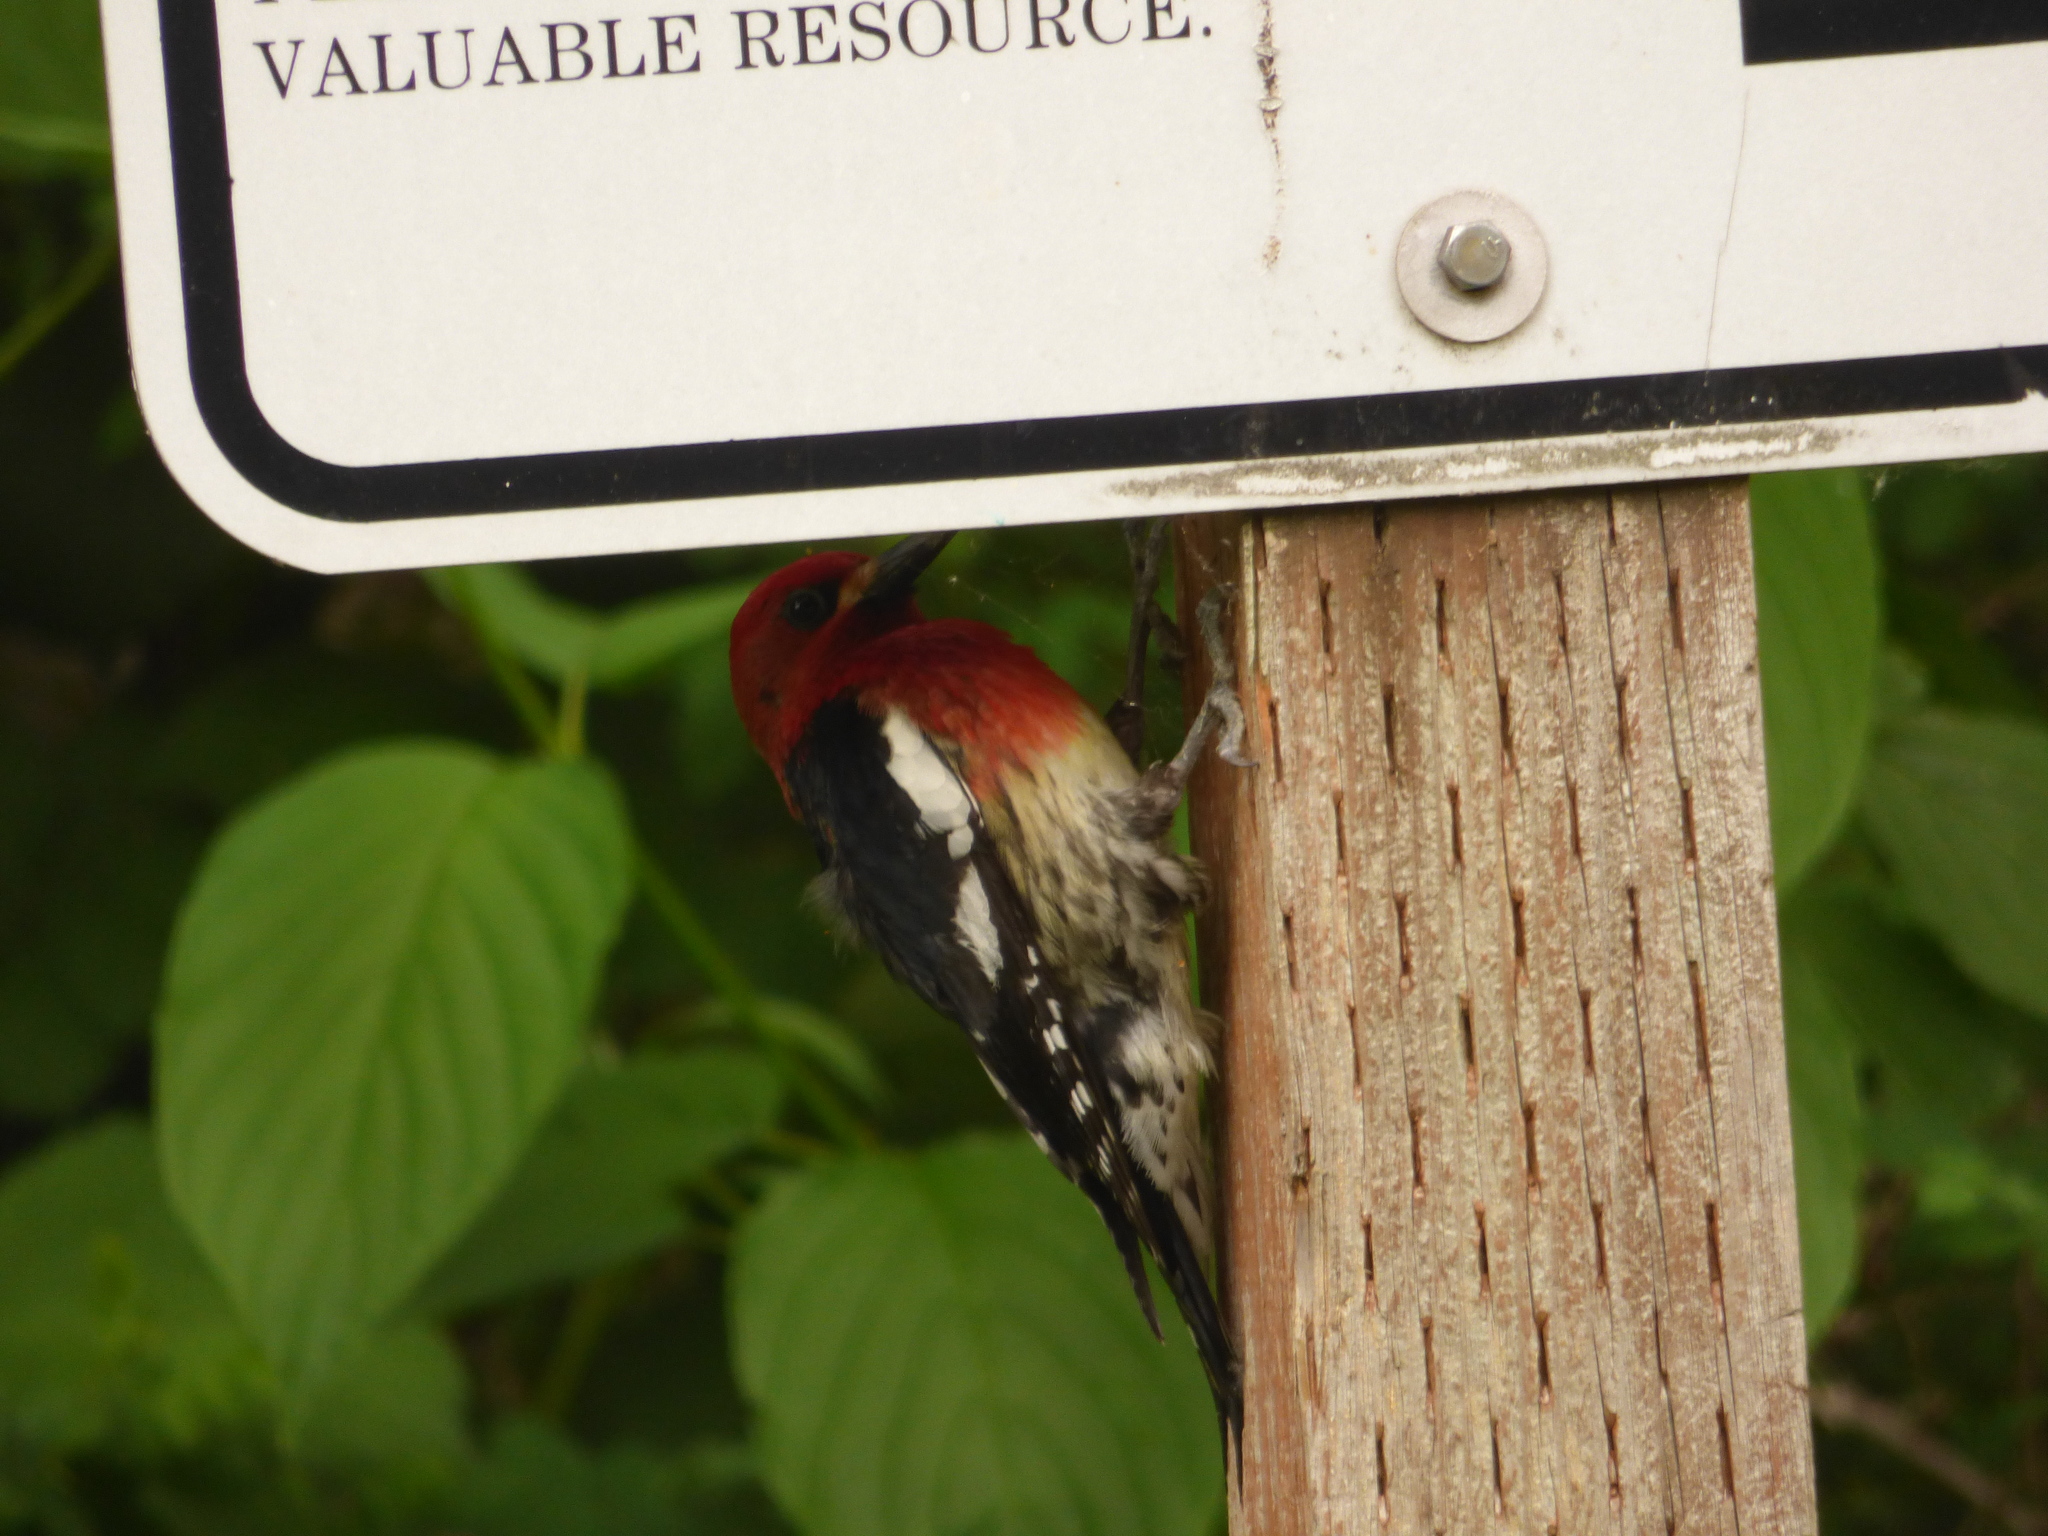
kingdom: Animalia
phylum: Chordata
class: Aves
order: Piciformes
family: Picidae
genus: Sphyrapicus
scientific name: Sphyrapicus ruber
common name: Red-breasted sapsucker
